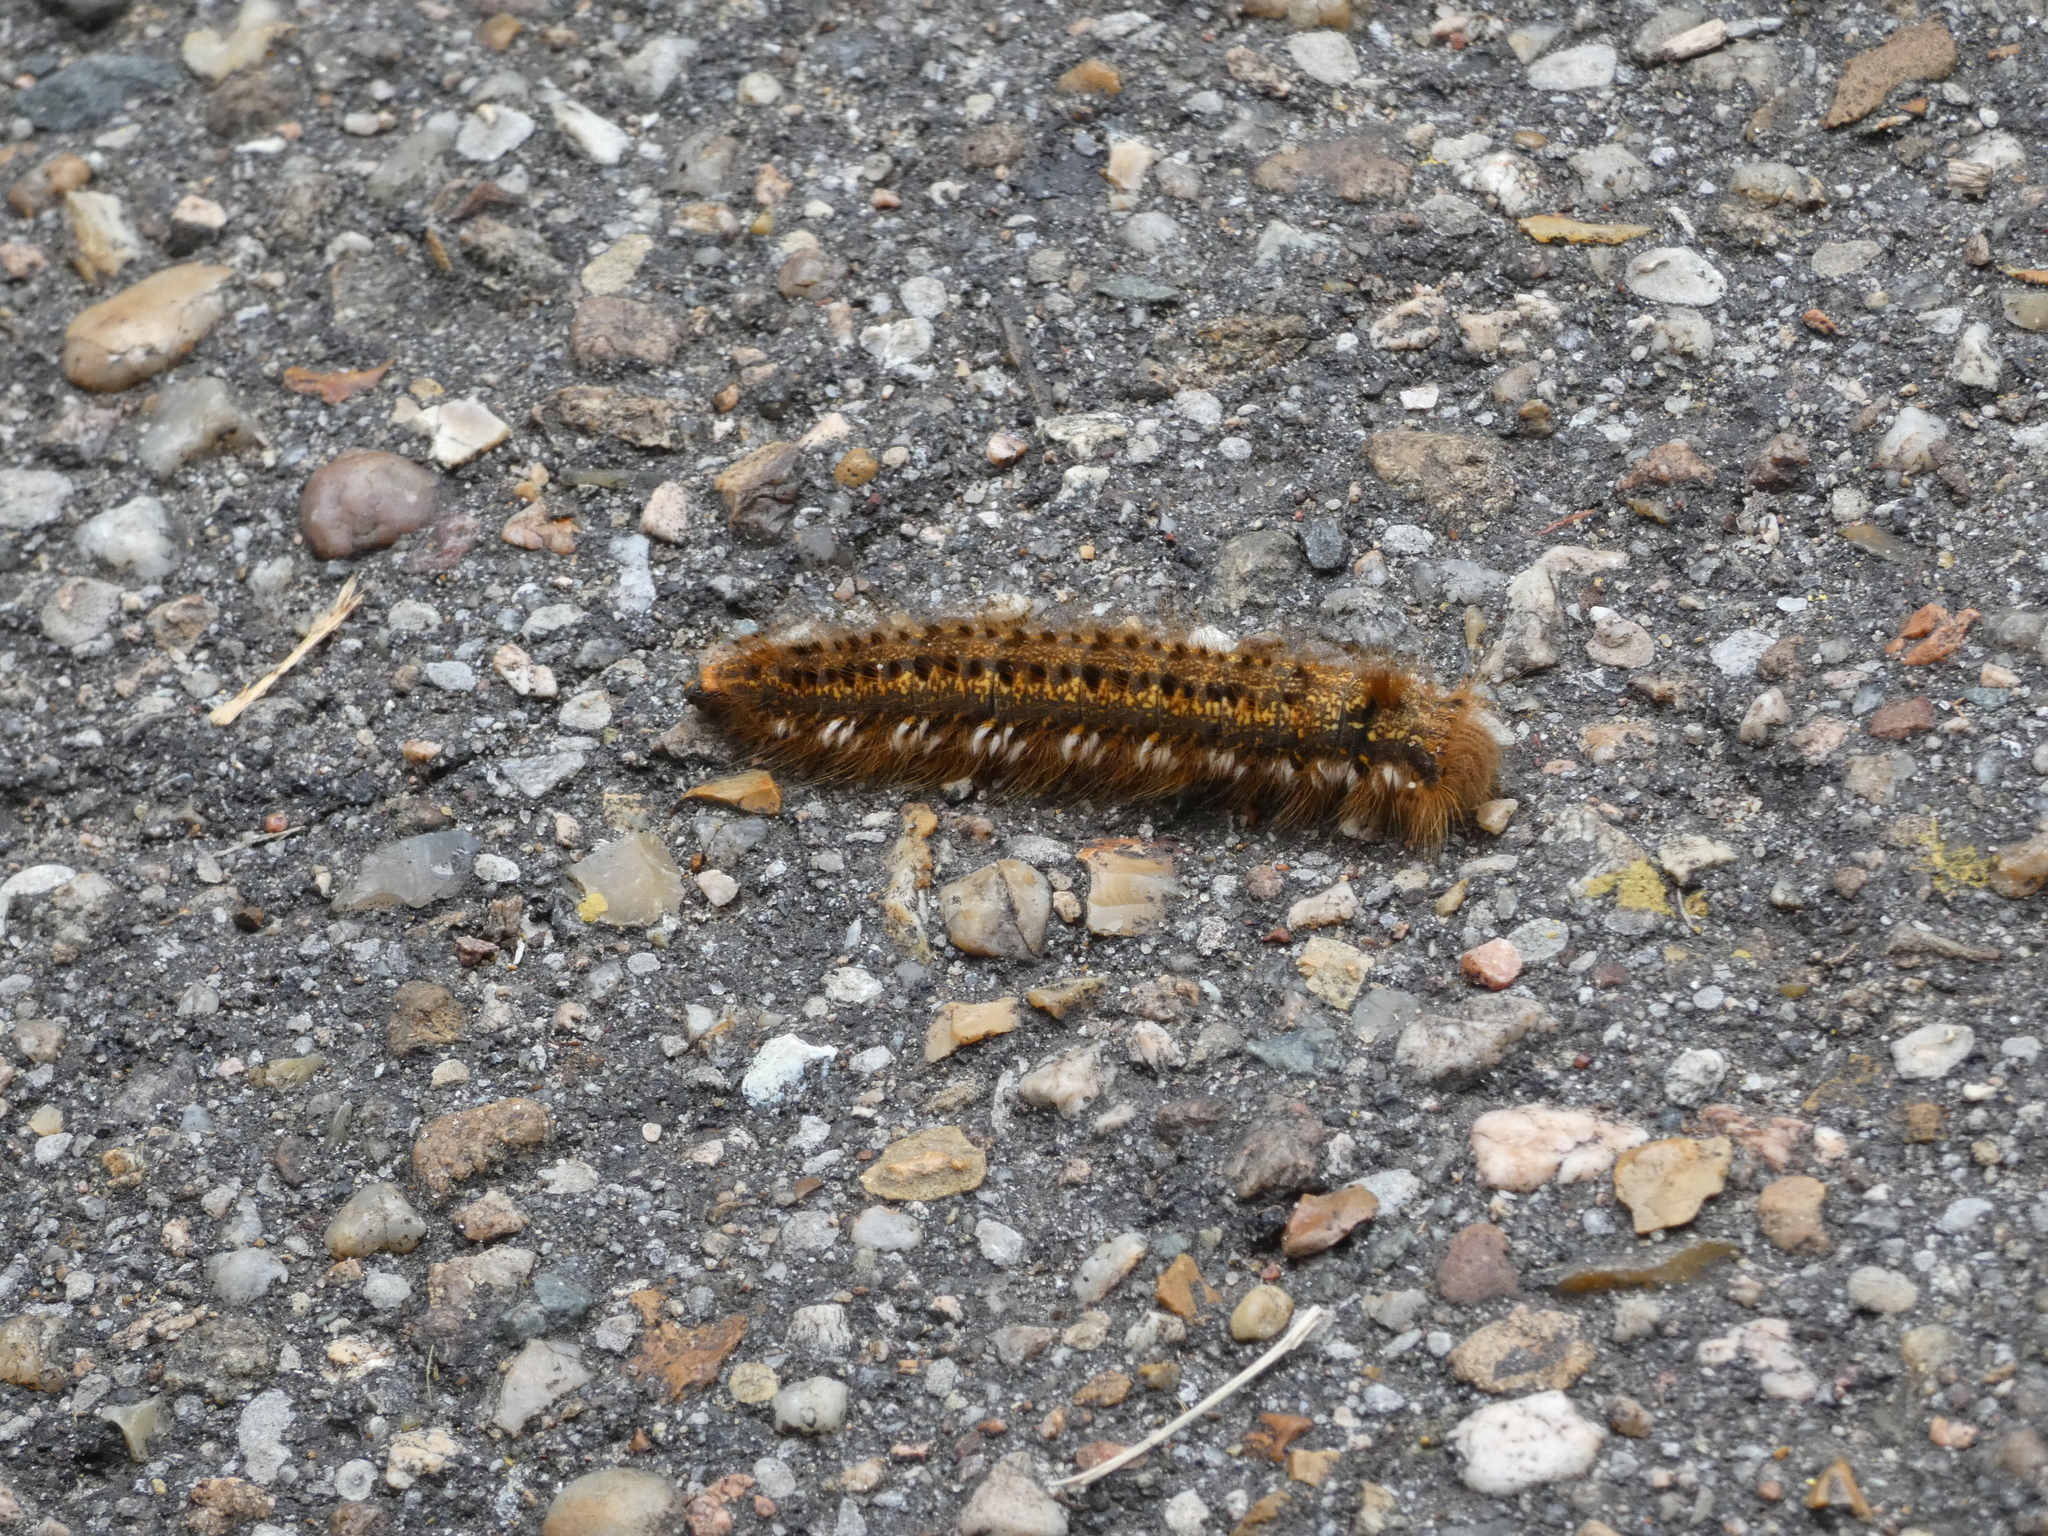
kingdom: Animalia
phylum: Arthropoda
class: Insecta
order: Lepidoptera
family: Lasiocampidae
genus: Euthrix
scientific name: Euthrix potatoria
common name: Drinker
